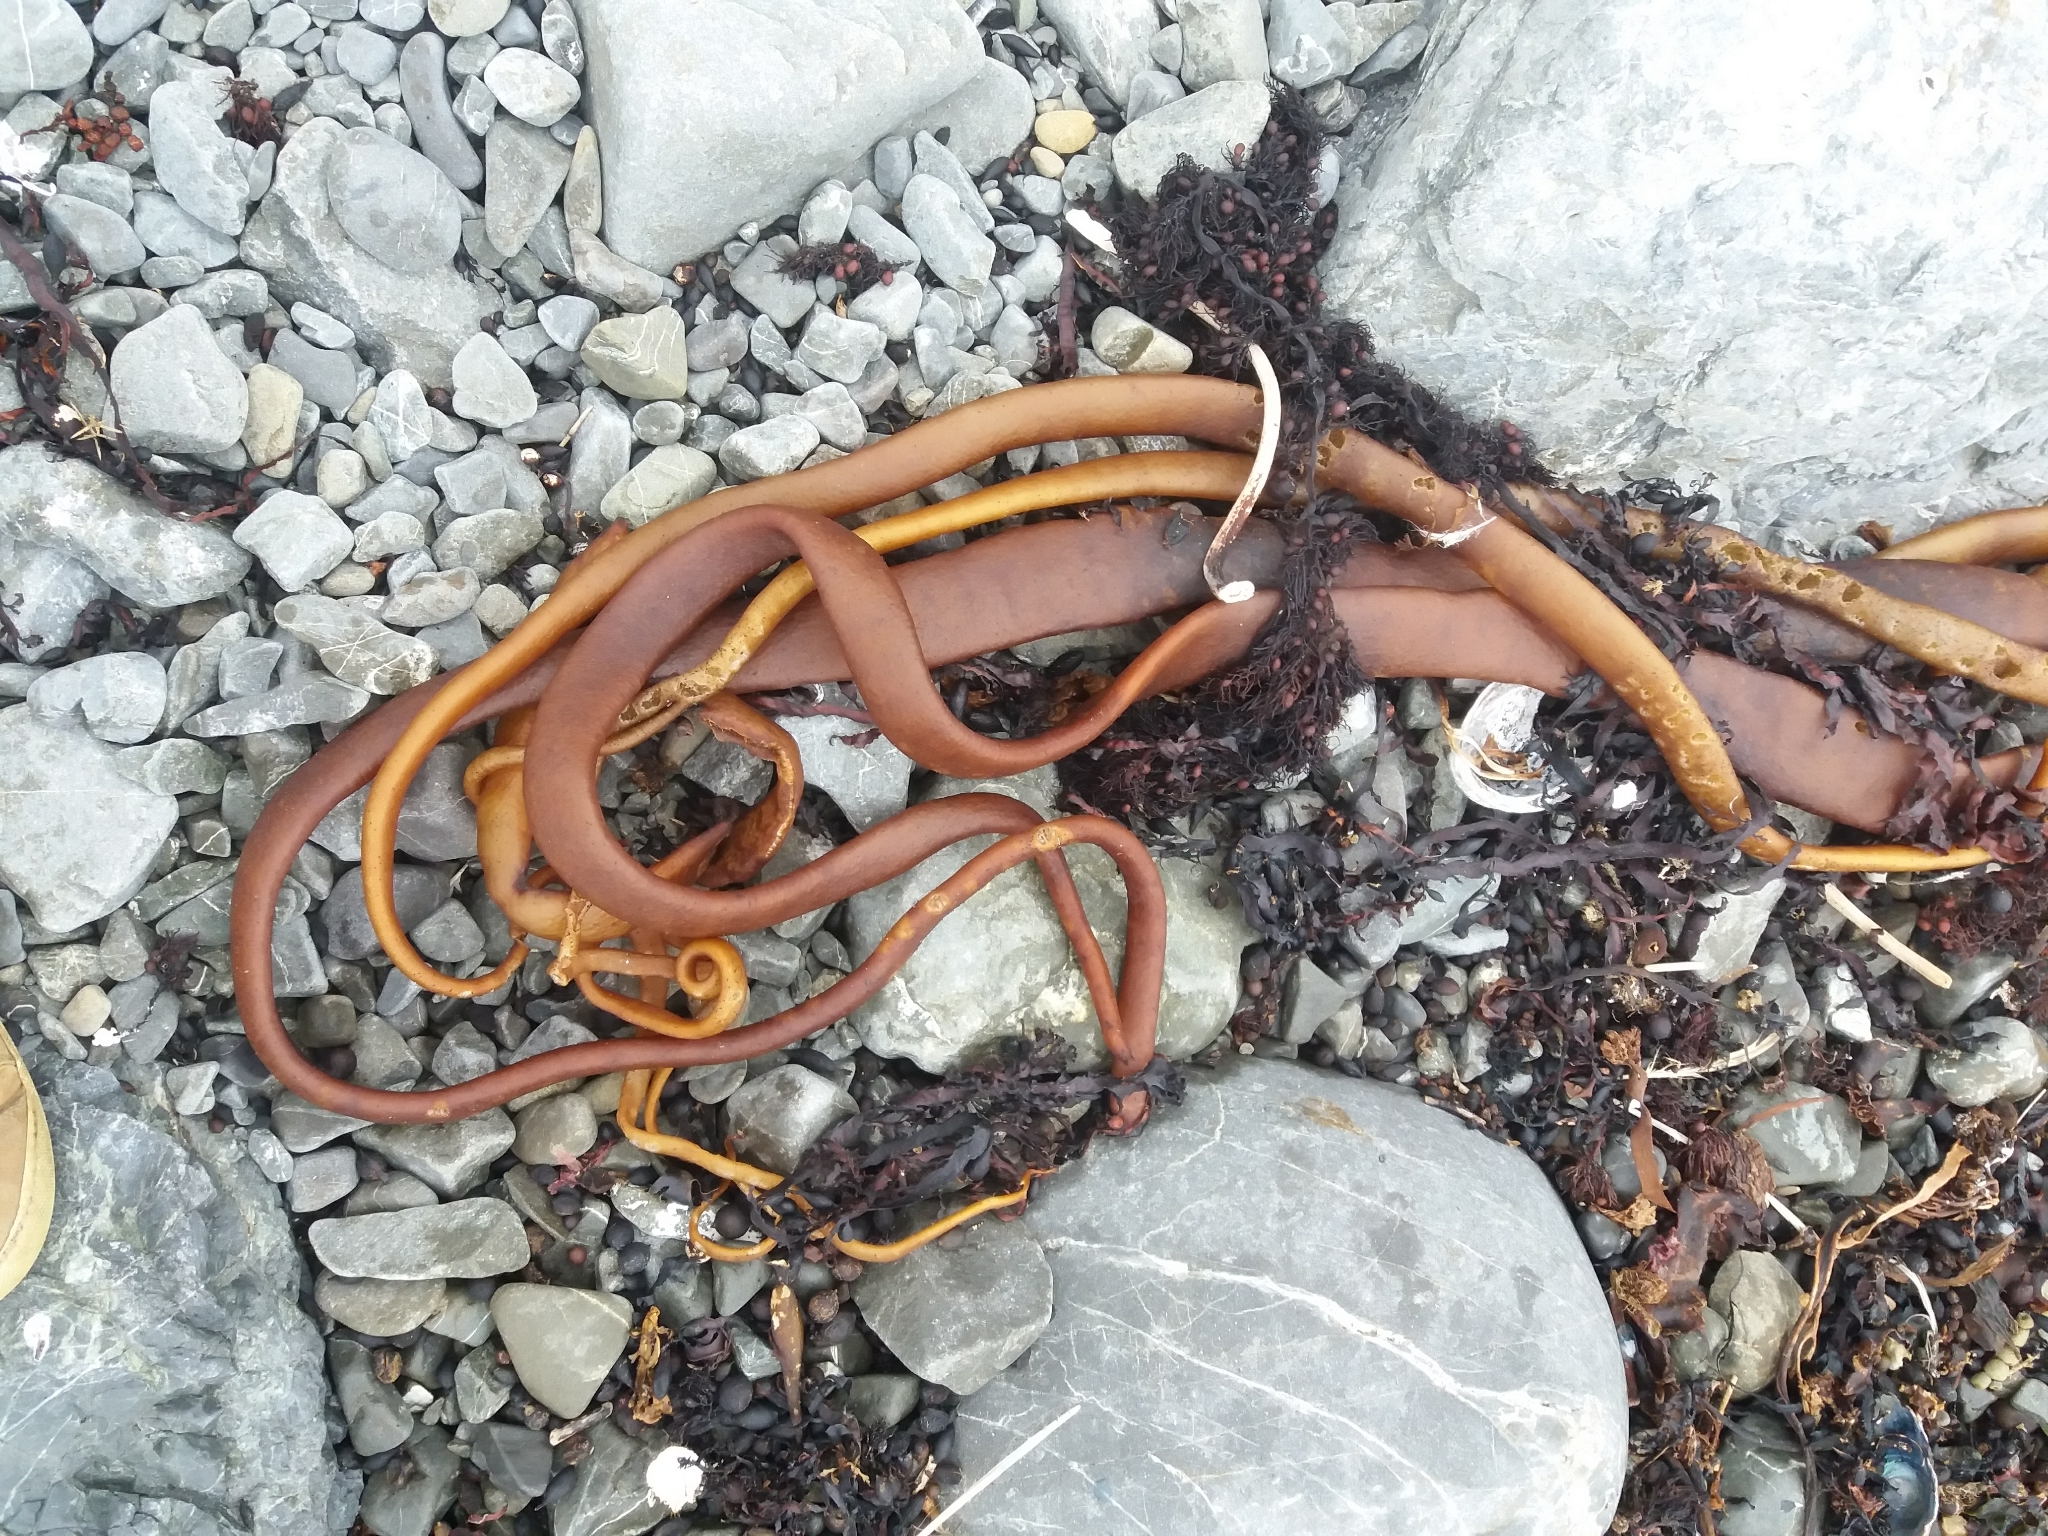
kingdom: Chromista
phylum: Ochrophyta
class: Phaeophyceae
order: Fucales
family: Durvillaeaceae
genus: Durvillaea
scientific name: Durvillaea antarctica
